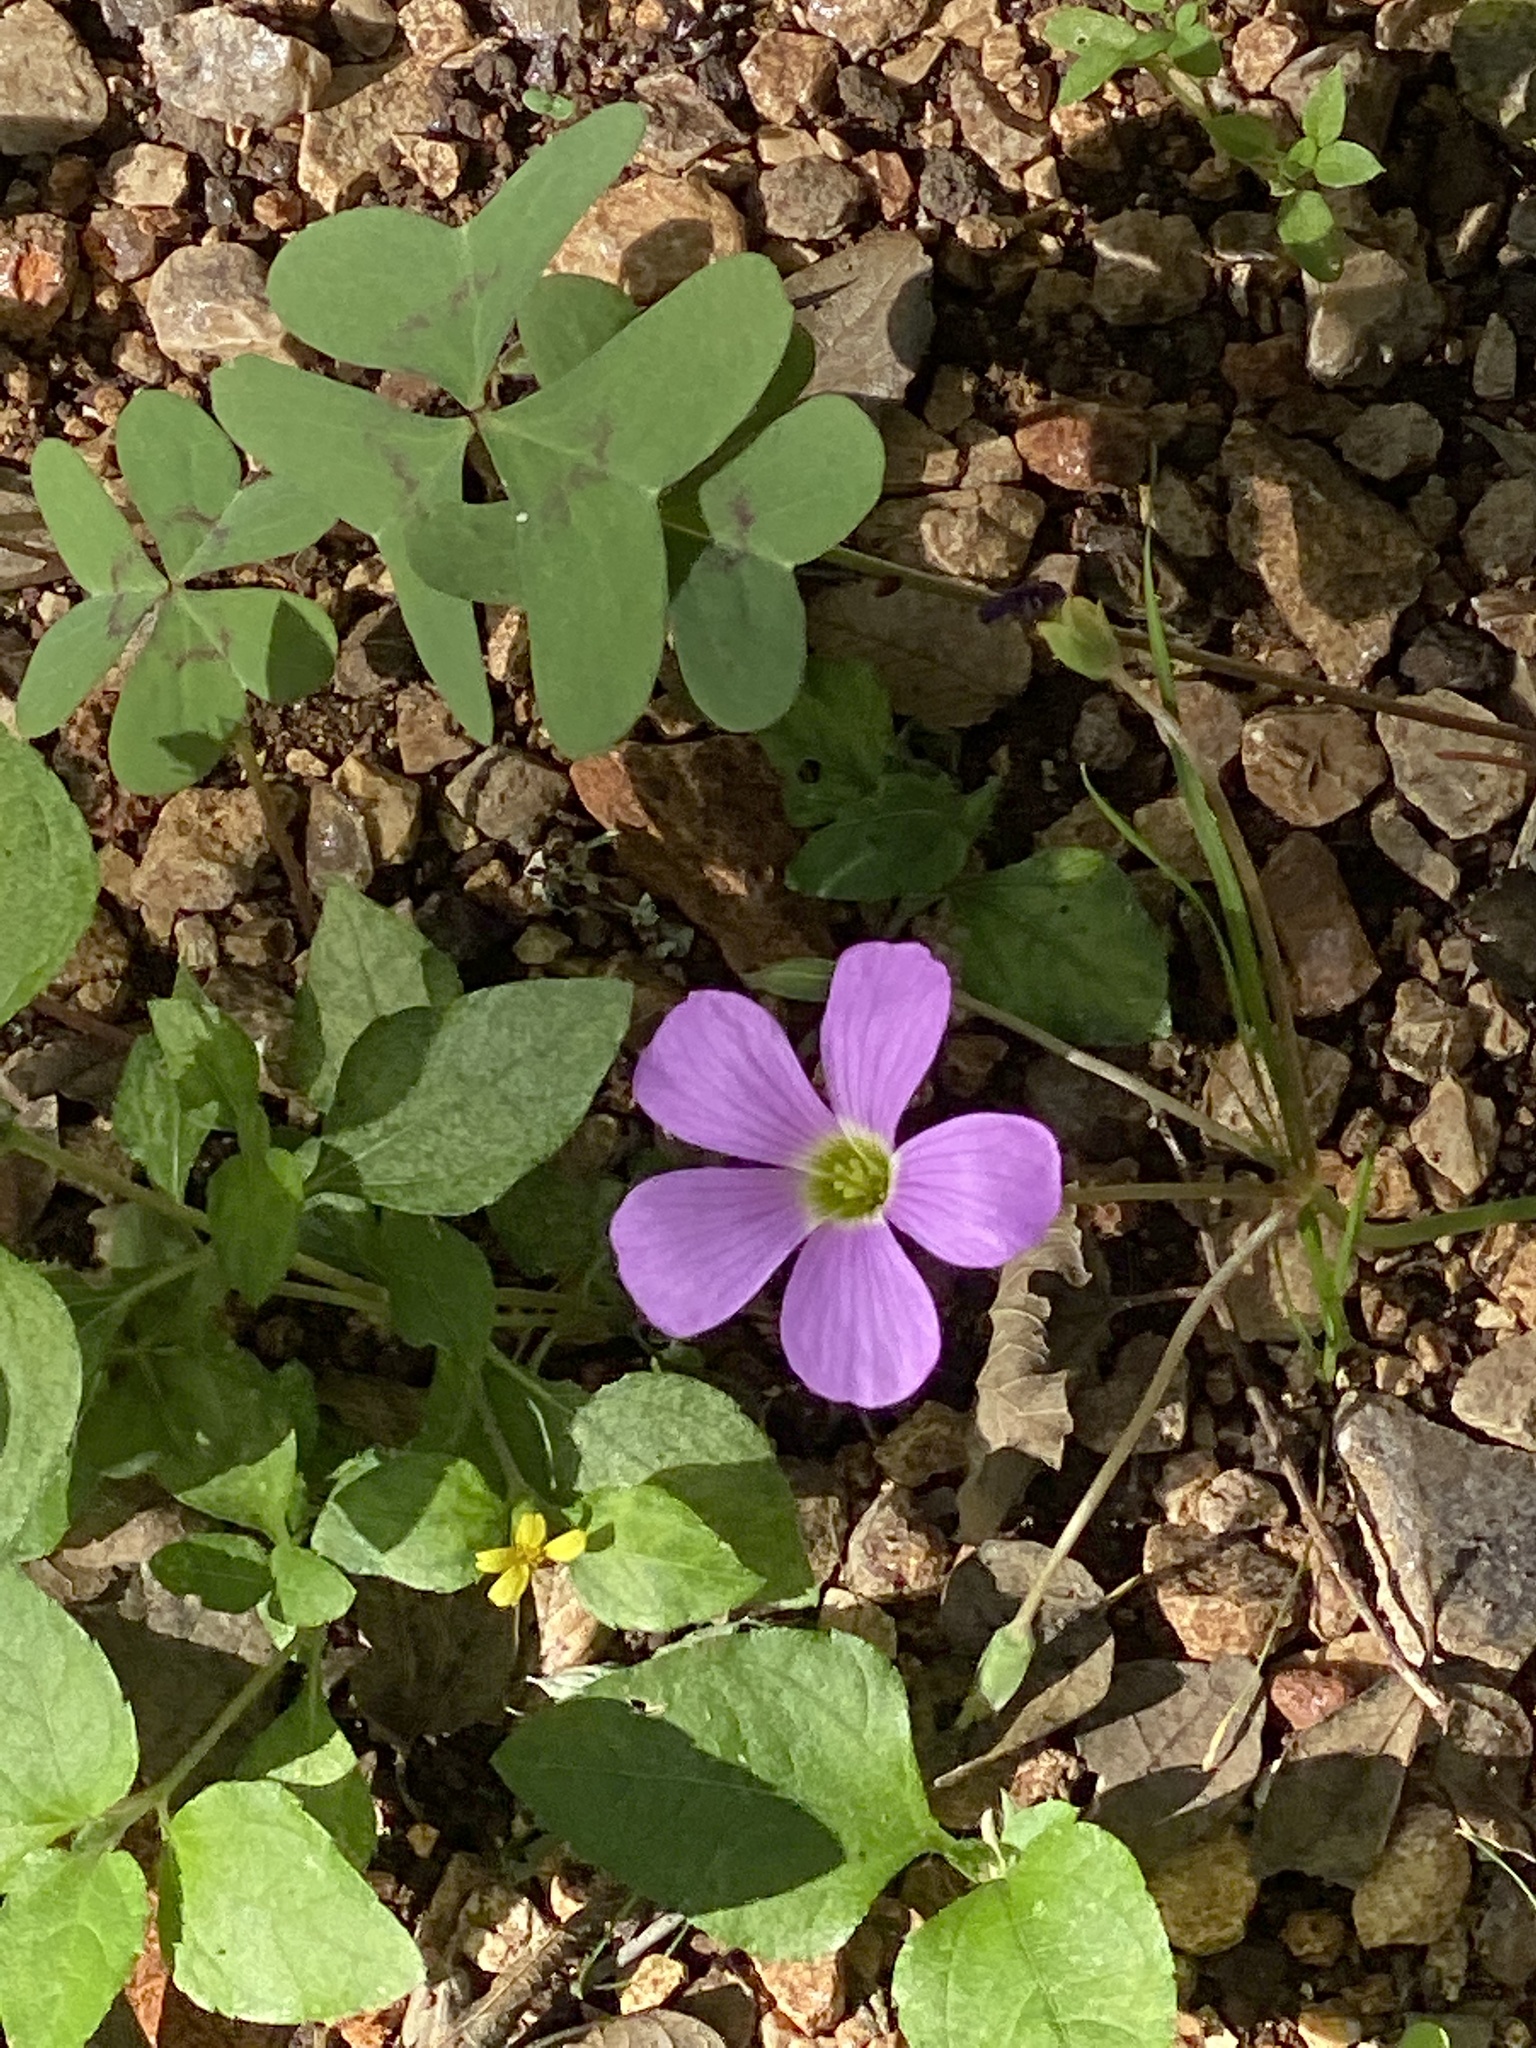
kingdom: Plantae
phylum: Tracheophyta
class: Magnoliopsida
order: Oxalidales
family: Oxalidaceae
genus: Oxalis
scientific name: Oxalis drummondii
